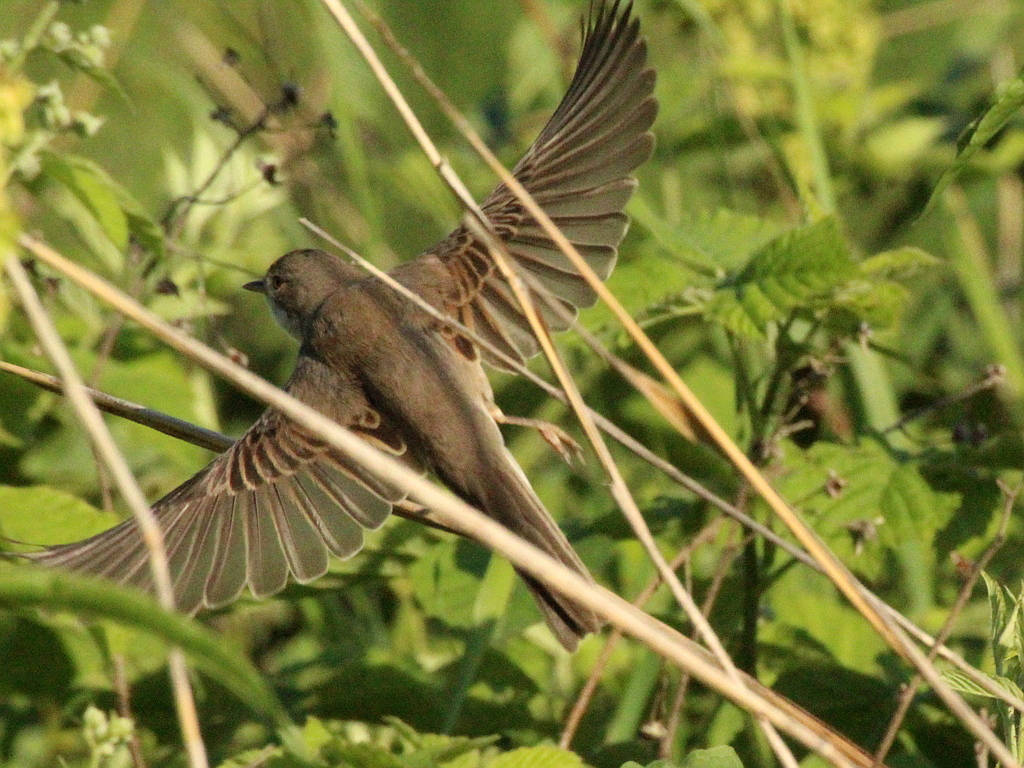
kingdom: Animalia
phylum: Chordata
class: Aves
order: Passeriformes
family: Sylviidae
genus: Sylvia
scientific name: Sylvia communis
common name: Common whitethroat
